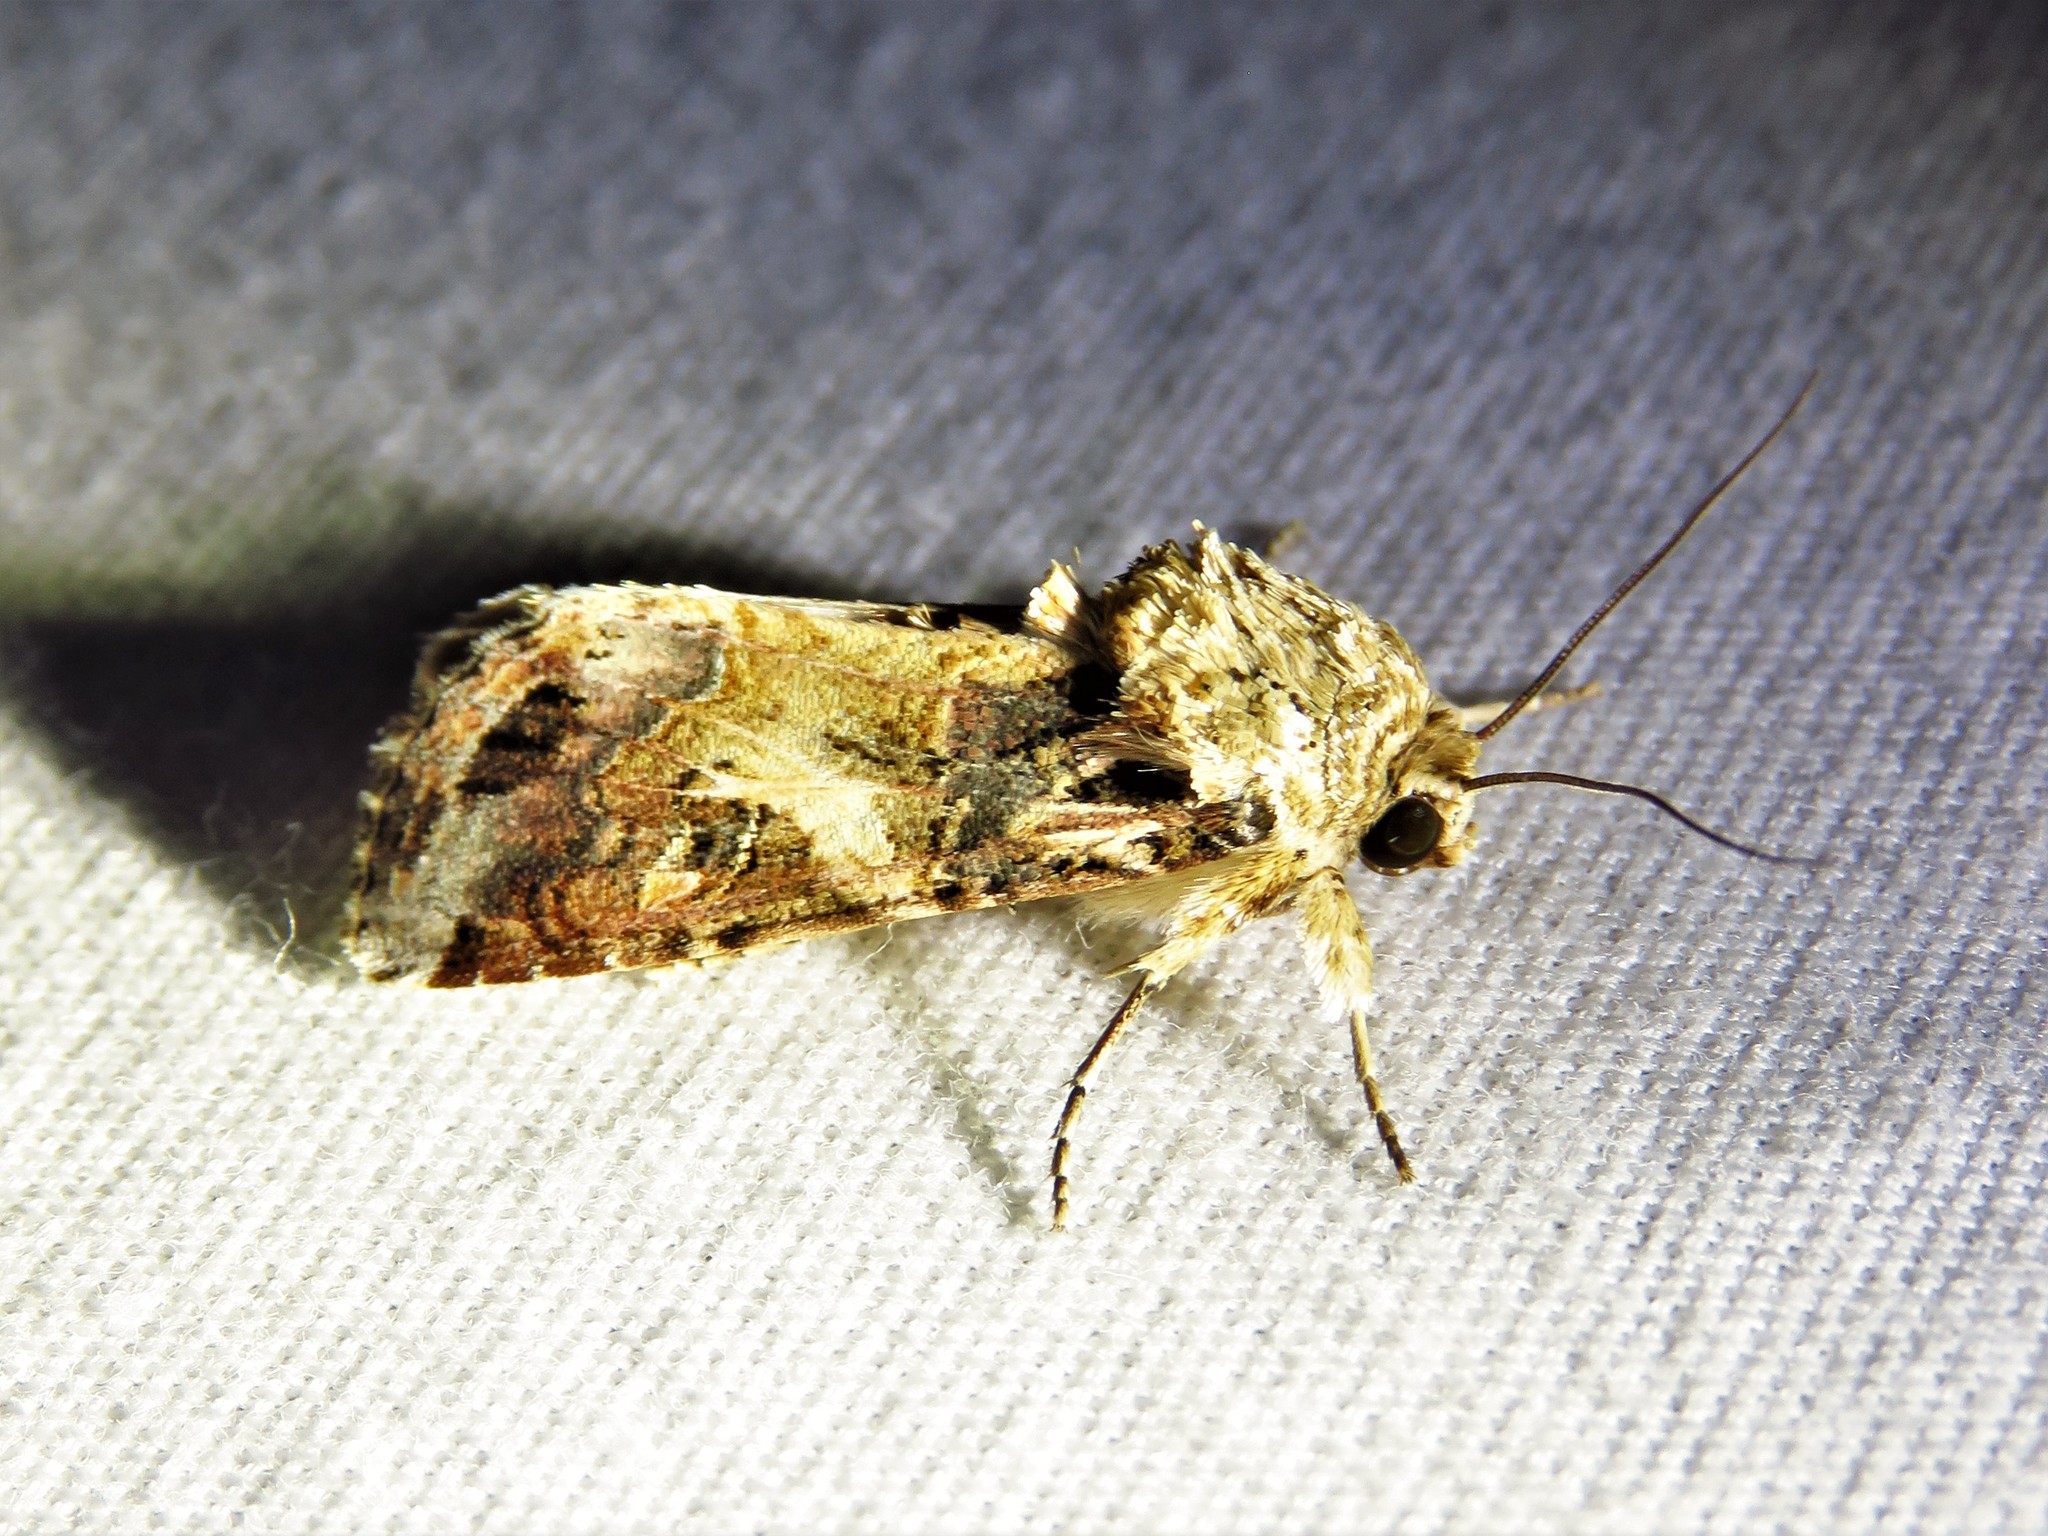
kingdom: Animalia
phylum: Arthropoda
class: Insecta
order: Lepidoptera
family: Noctuidae
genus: Spodoptera
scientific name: Spodoptera ornithogalli
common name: Yellow-striped armyworm
